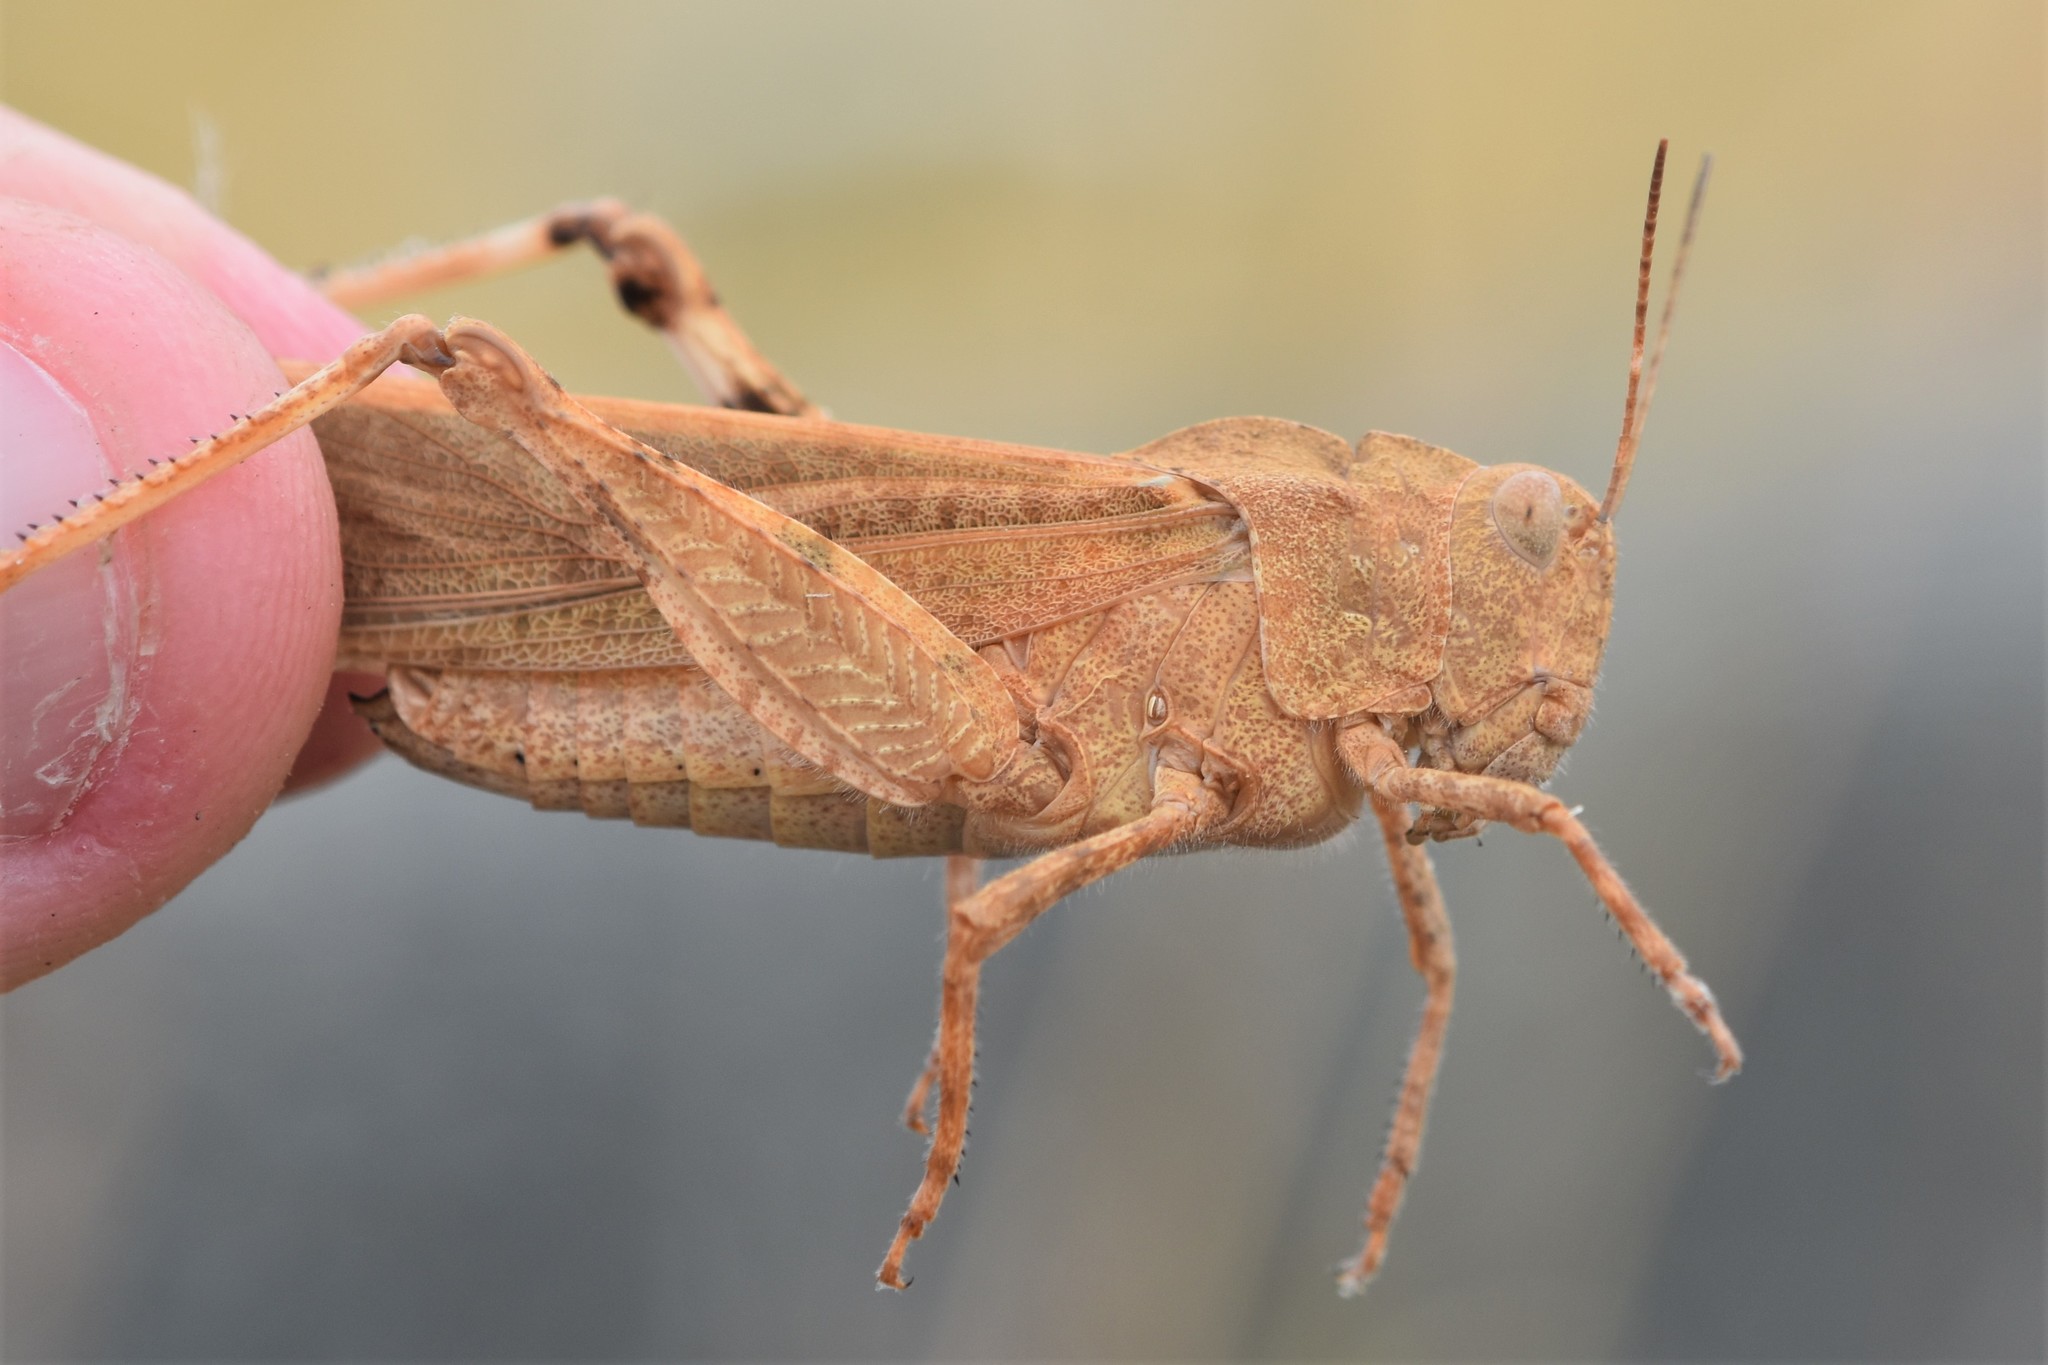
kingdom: Animalia
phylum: Arthropoda
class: Insecta
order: Orthoptera
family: Acrididae
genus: Dissosteira
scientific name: Dissosteira carolina
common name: Carolina grasshopper
